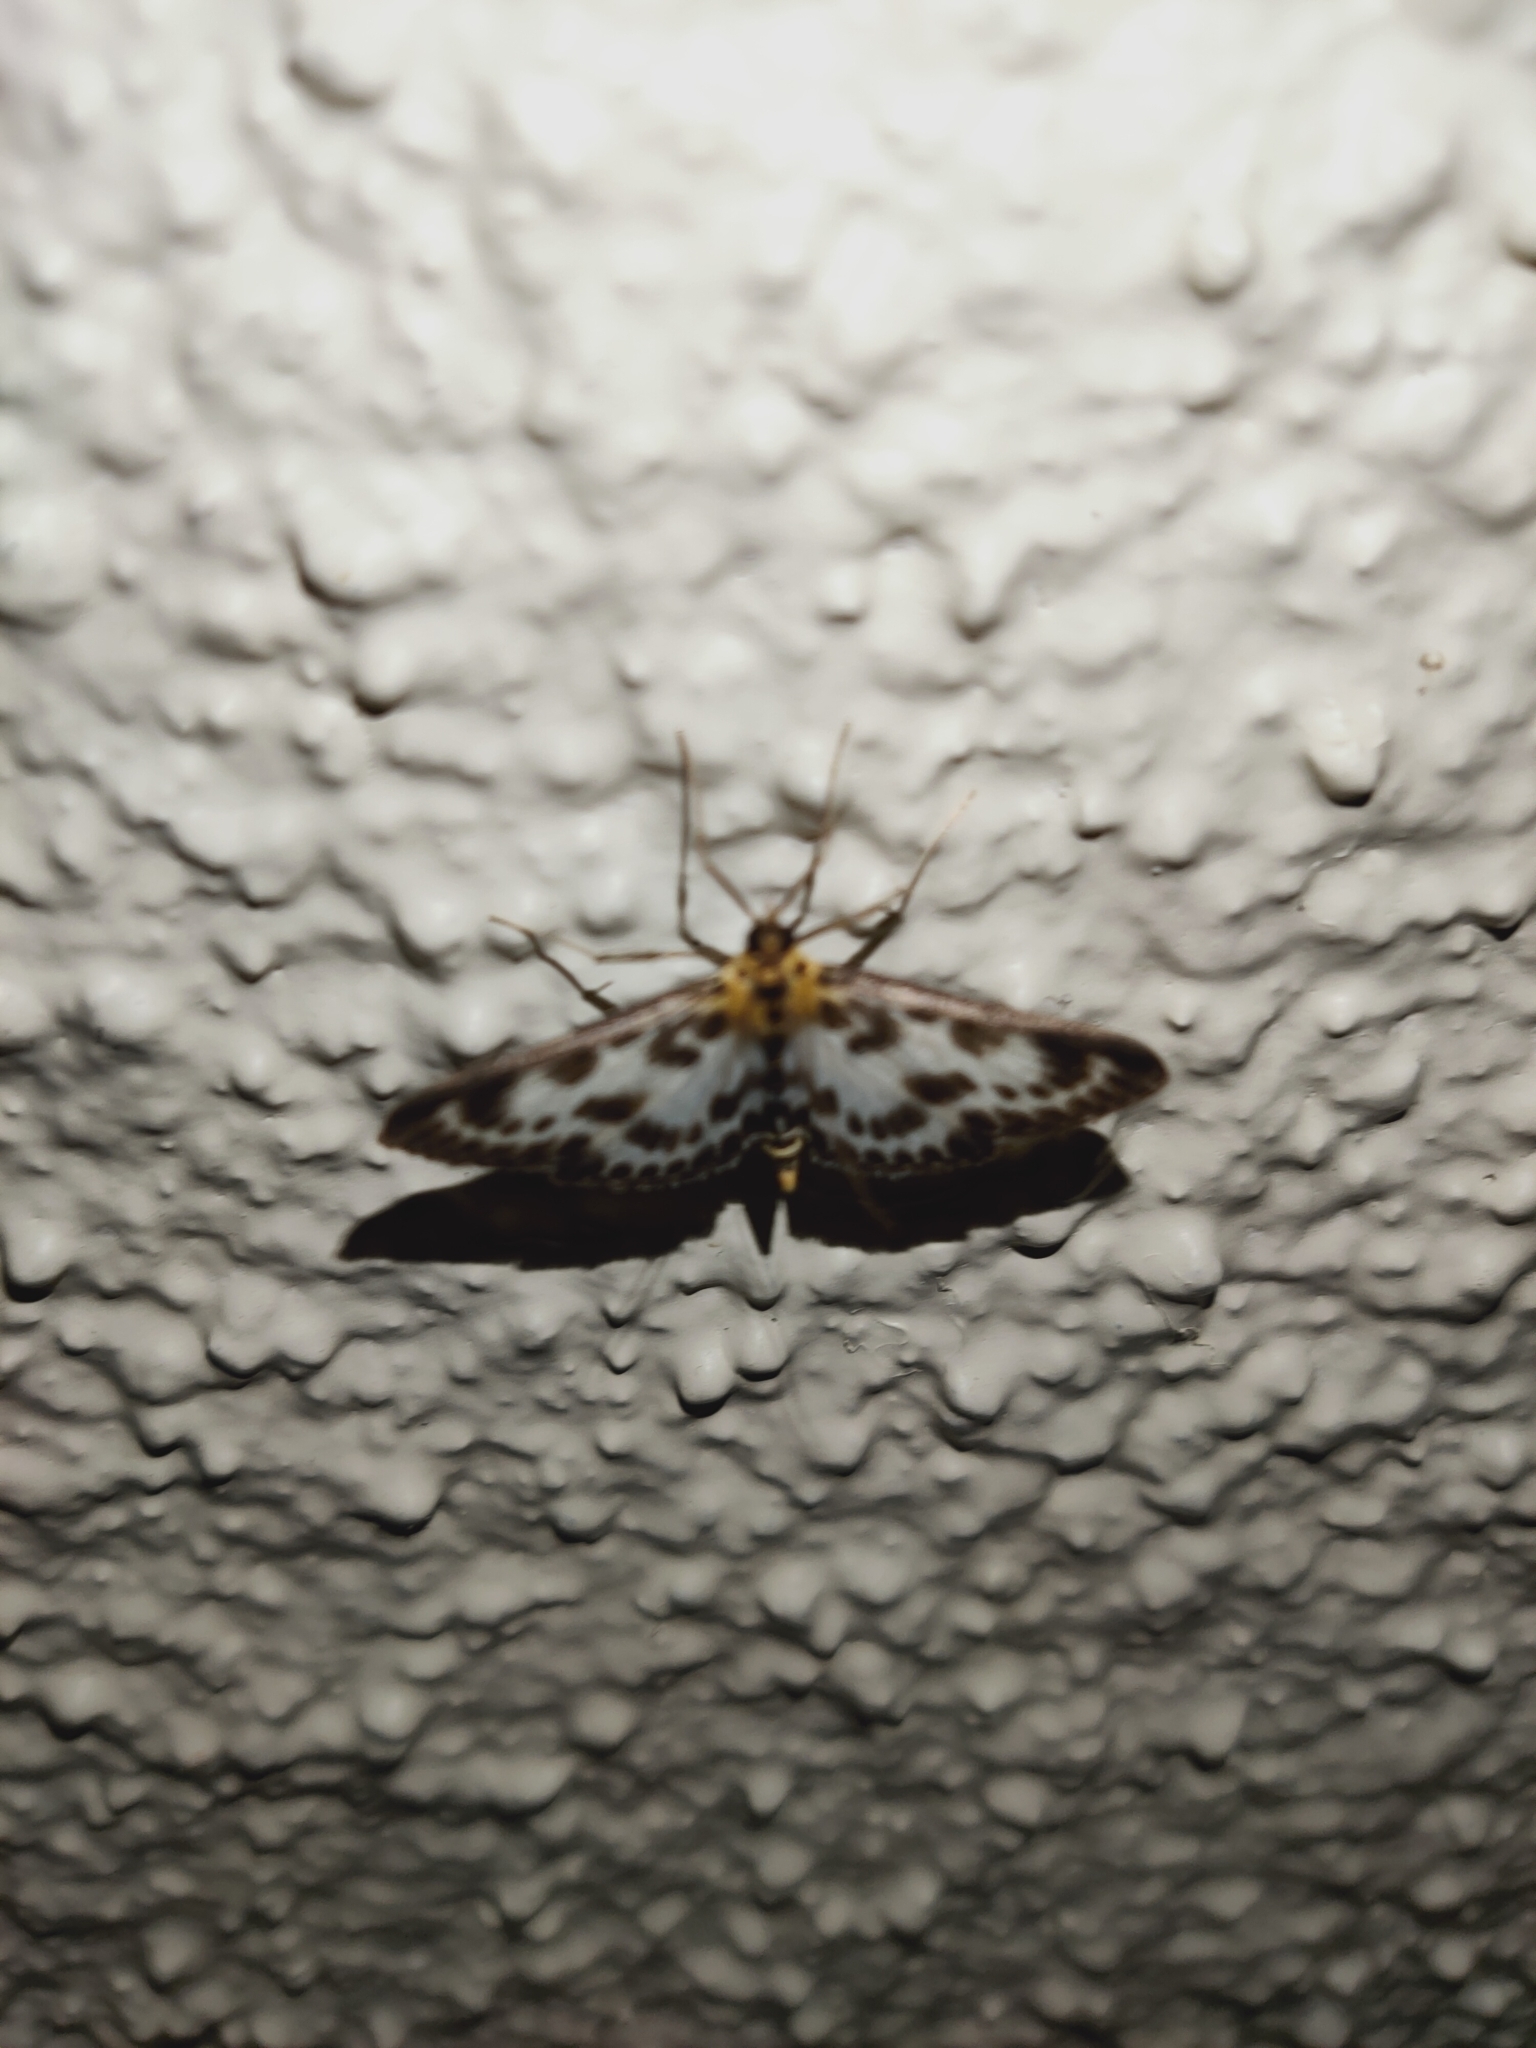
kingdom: Animalia
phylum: Arthropoda
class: Insecta
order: Lepidoptera
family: Crambidae
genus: Anania
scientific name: Anania hortulata
